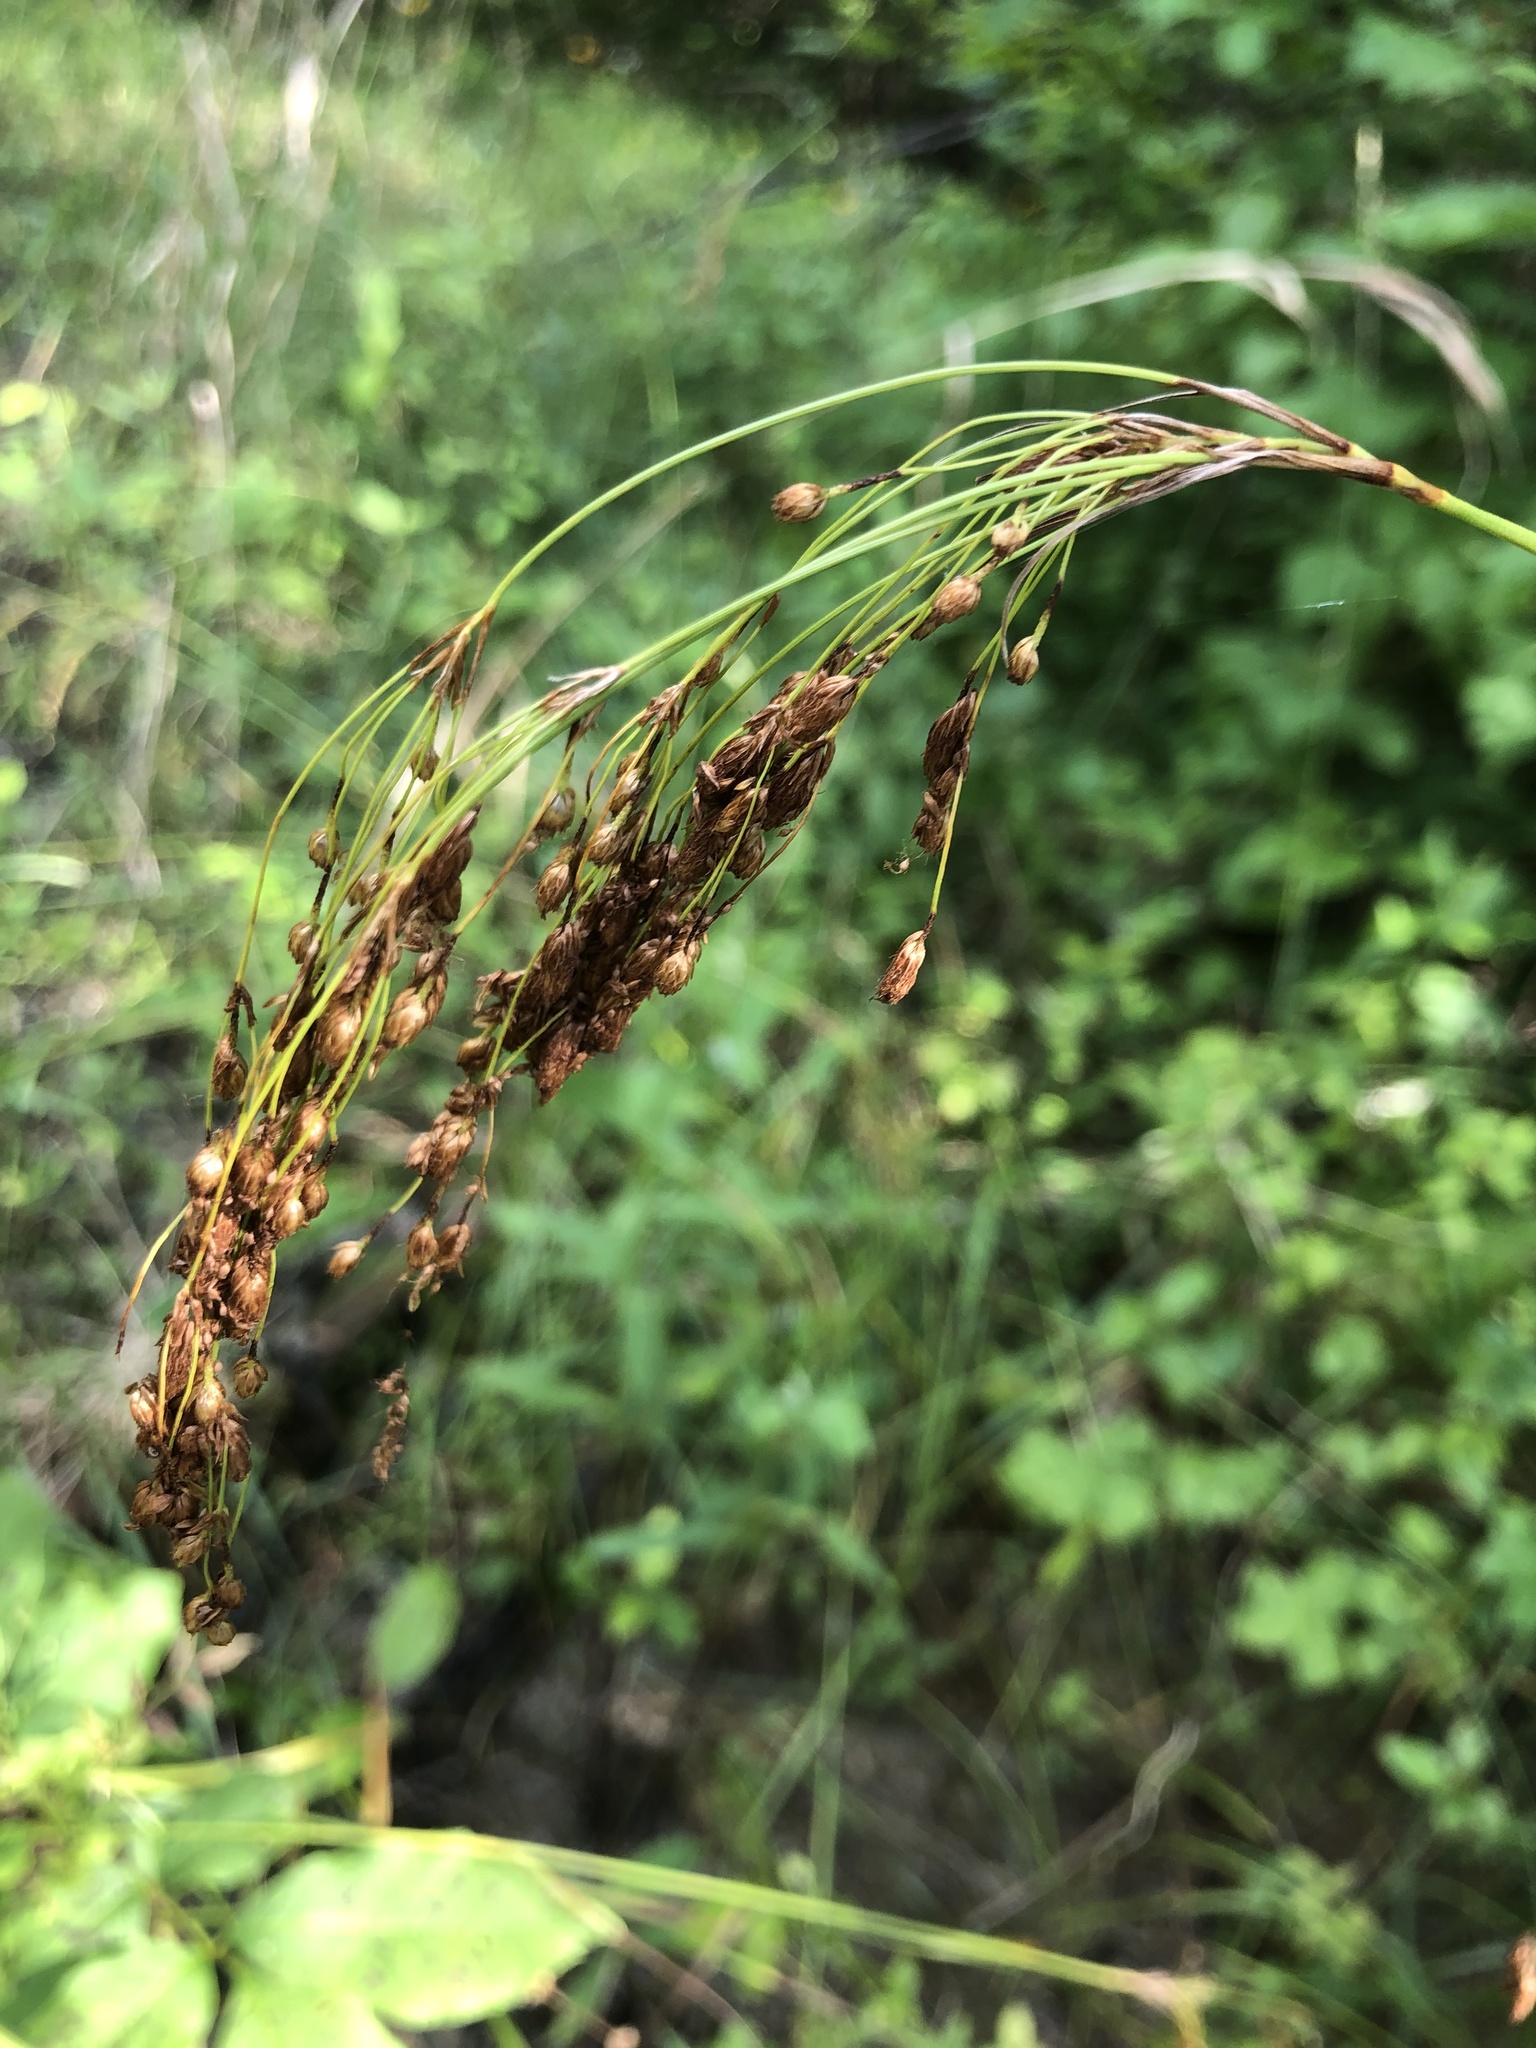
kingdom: Plantae
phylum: Tracheophyta
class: Liliopsida
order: Poales
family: Cyperaceae
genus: Scirpus
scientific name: Scirpus pendulus
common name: Nodding bulrush
